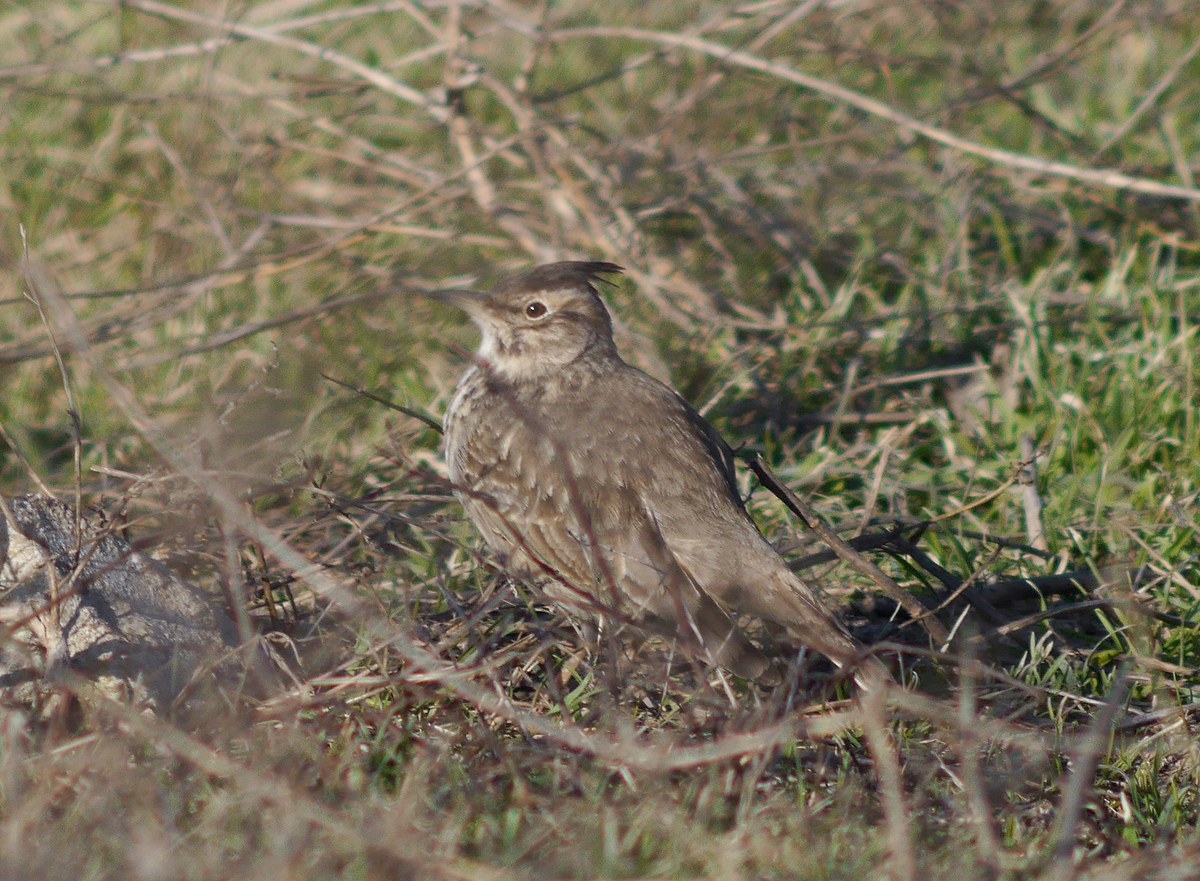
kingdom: Animalia
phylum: Chordata
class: Aves
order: Passeriformes
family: Alaudidae
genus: Galerida
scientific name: Galerida cristata
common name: Crested lark
